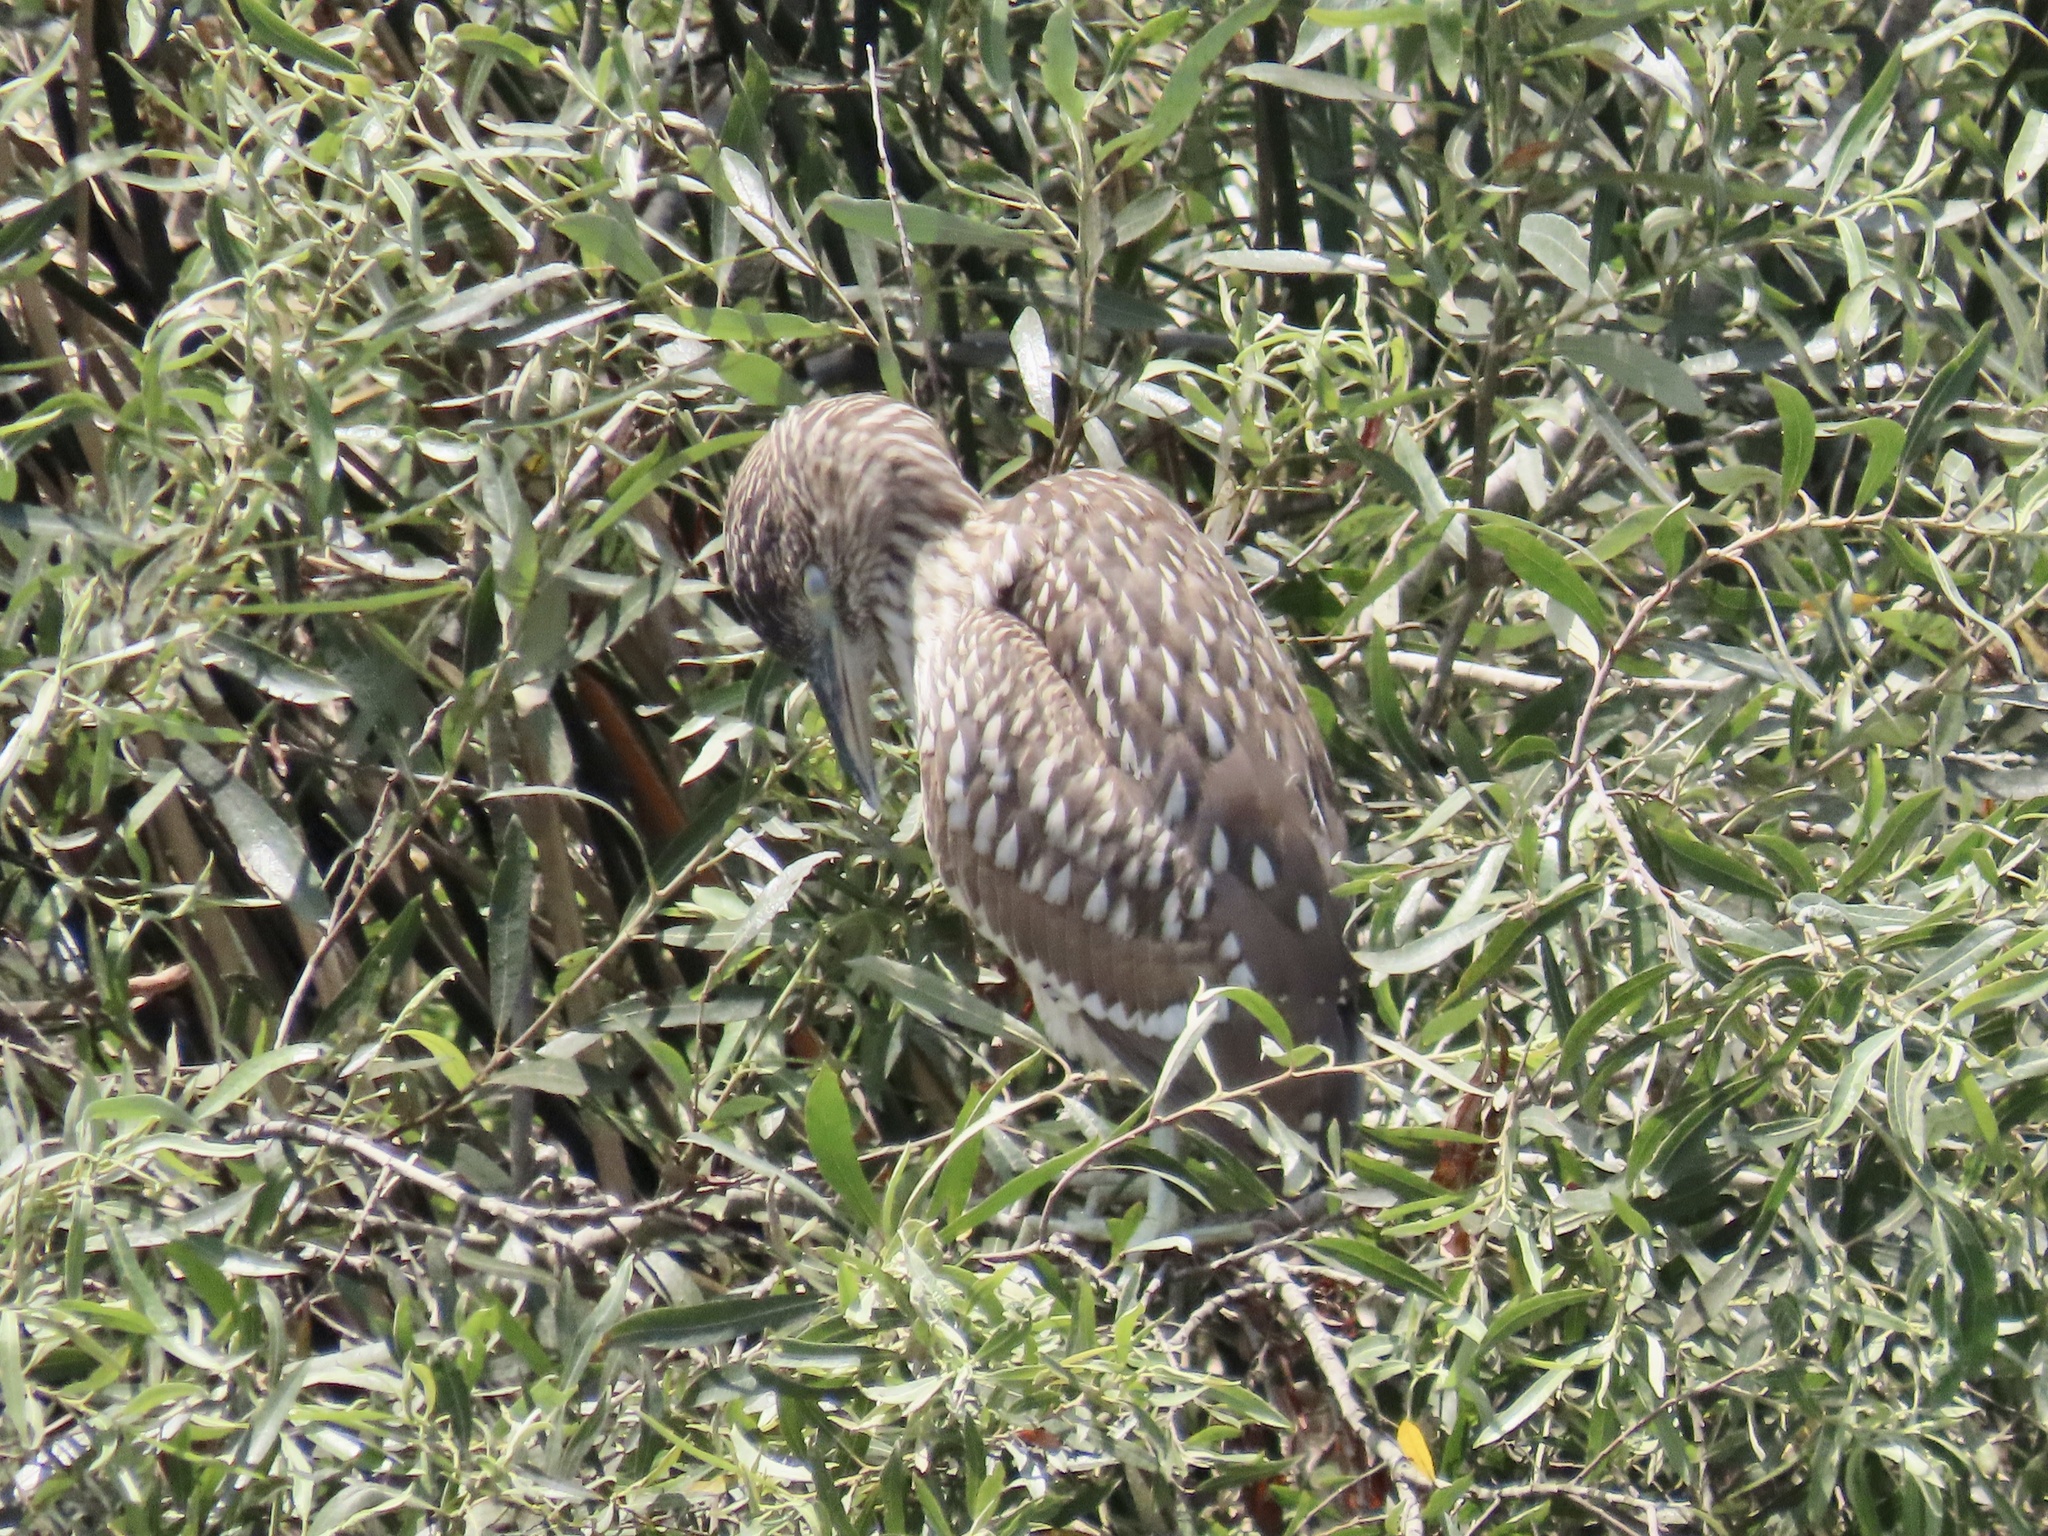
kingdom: Animalia
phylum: Chordata
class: Aves
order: Pelecaniformes
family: Ardeidae
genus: Nycticorax
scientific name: Nycticorax nycticorax
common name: Black-crowned night heron
